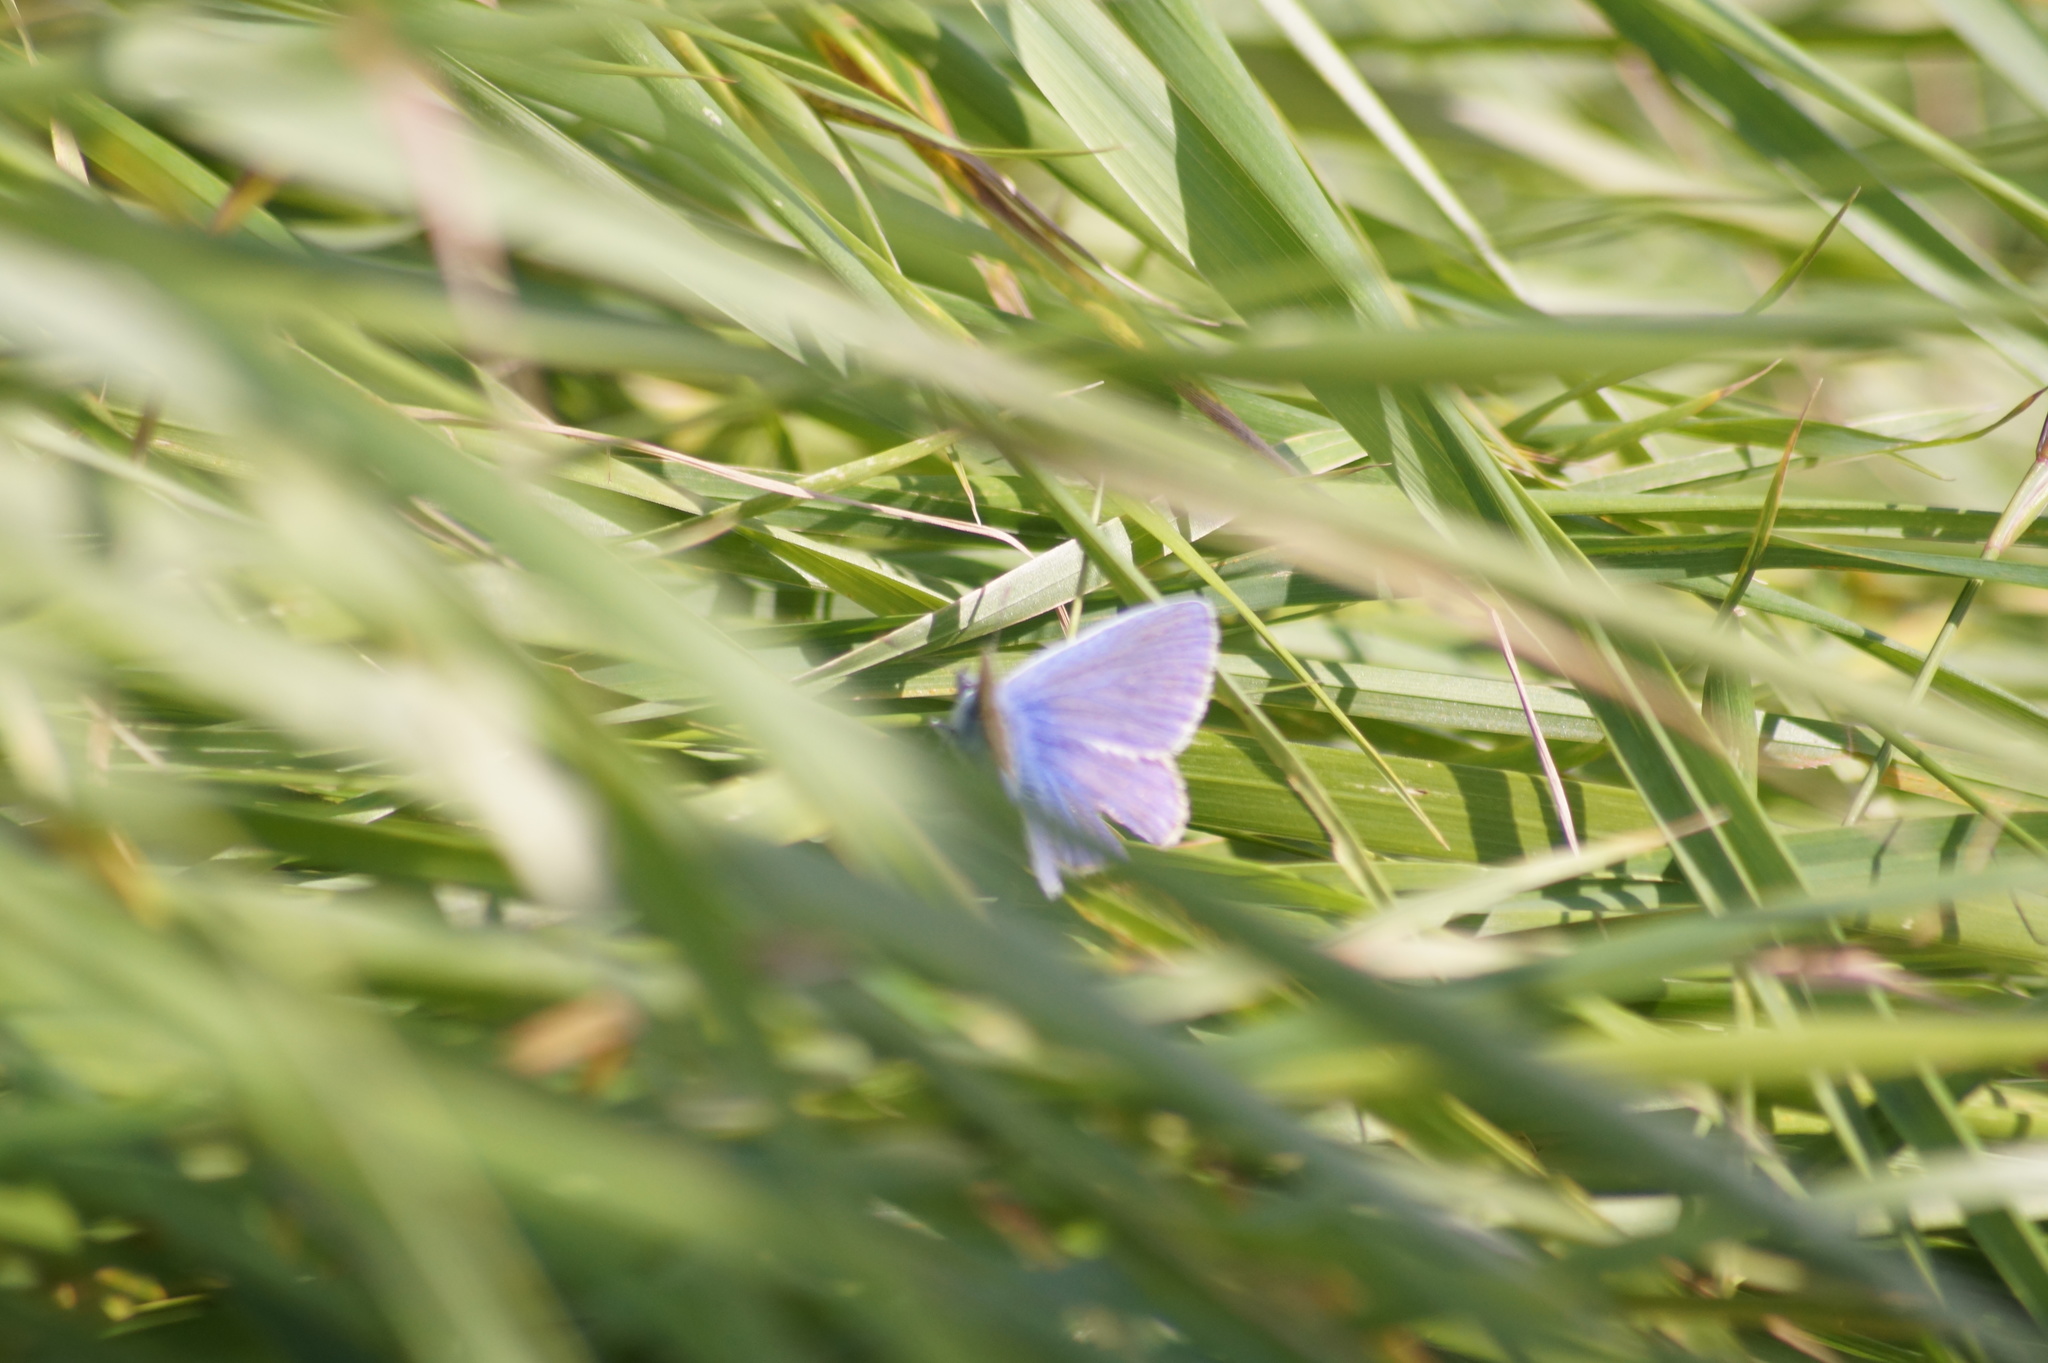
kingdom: Animalia
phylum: Arthropoda
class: Insecta
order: Lepidoptera
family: Lycaenidae
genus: Polyommatus
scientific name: Polyommatus icarus
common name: Common blue
